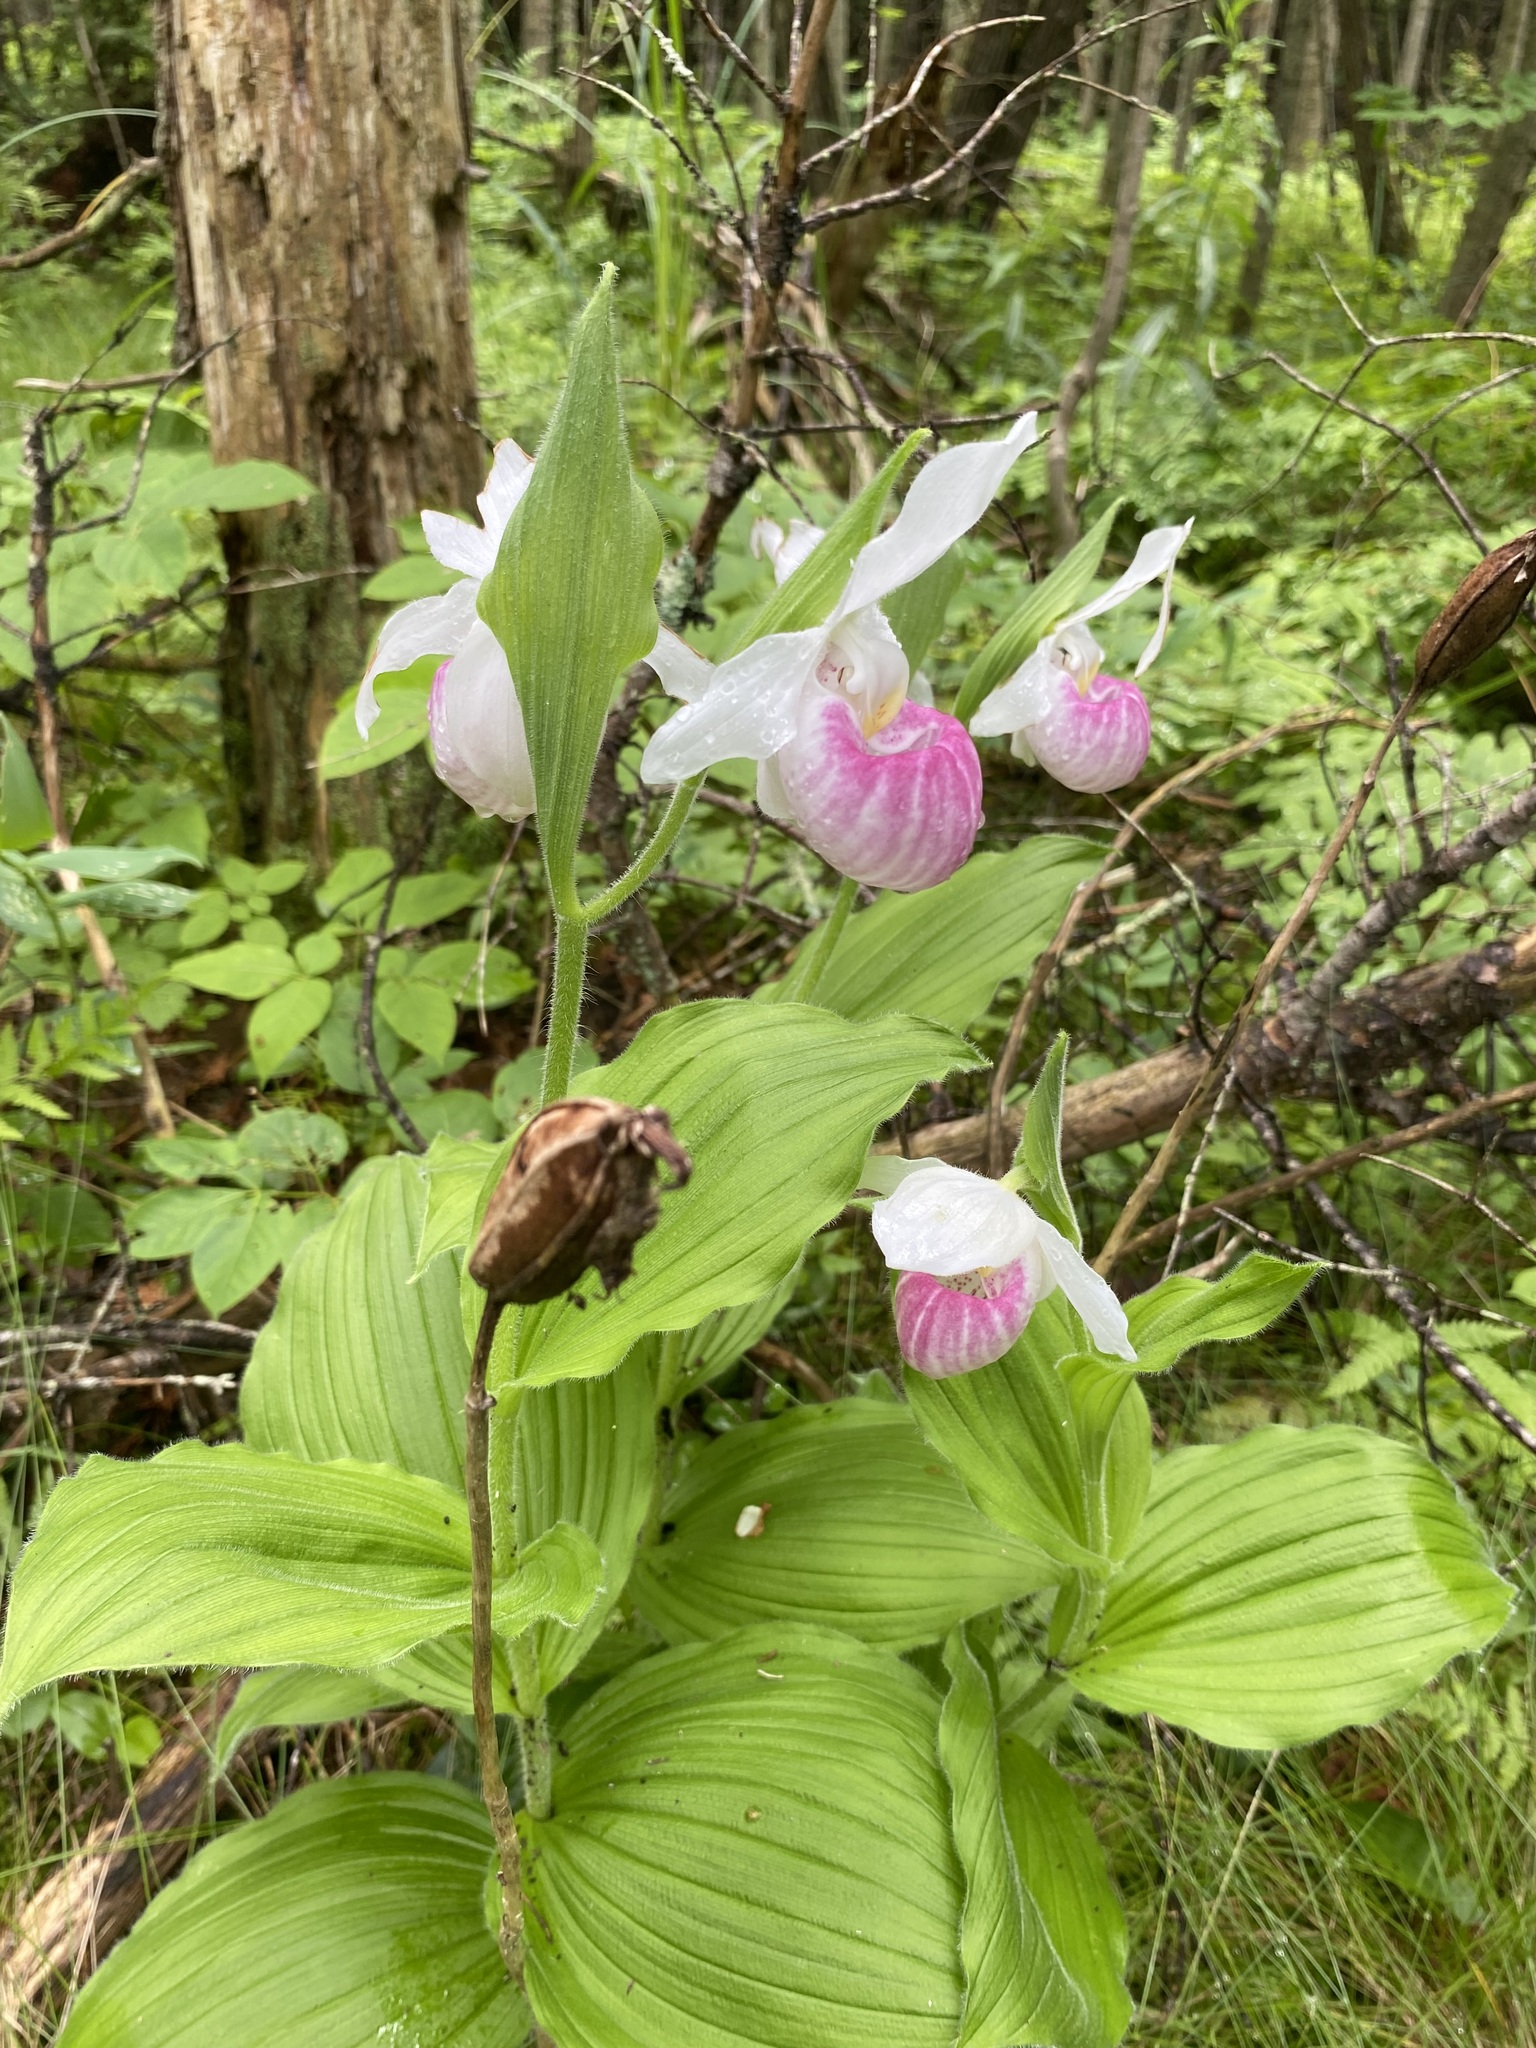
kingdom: Plantae
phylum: Tracheophyta
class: Liliopsida
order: Asparagales
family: Orchidaceae
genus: Cypripedium
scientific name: Cypripedium reginae
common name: Queen lady's-slipper
